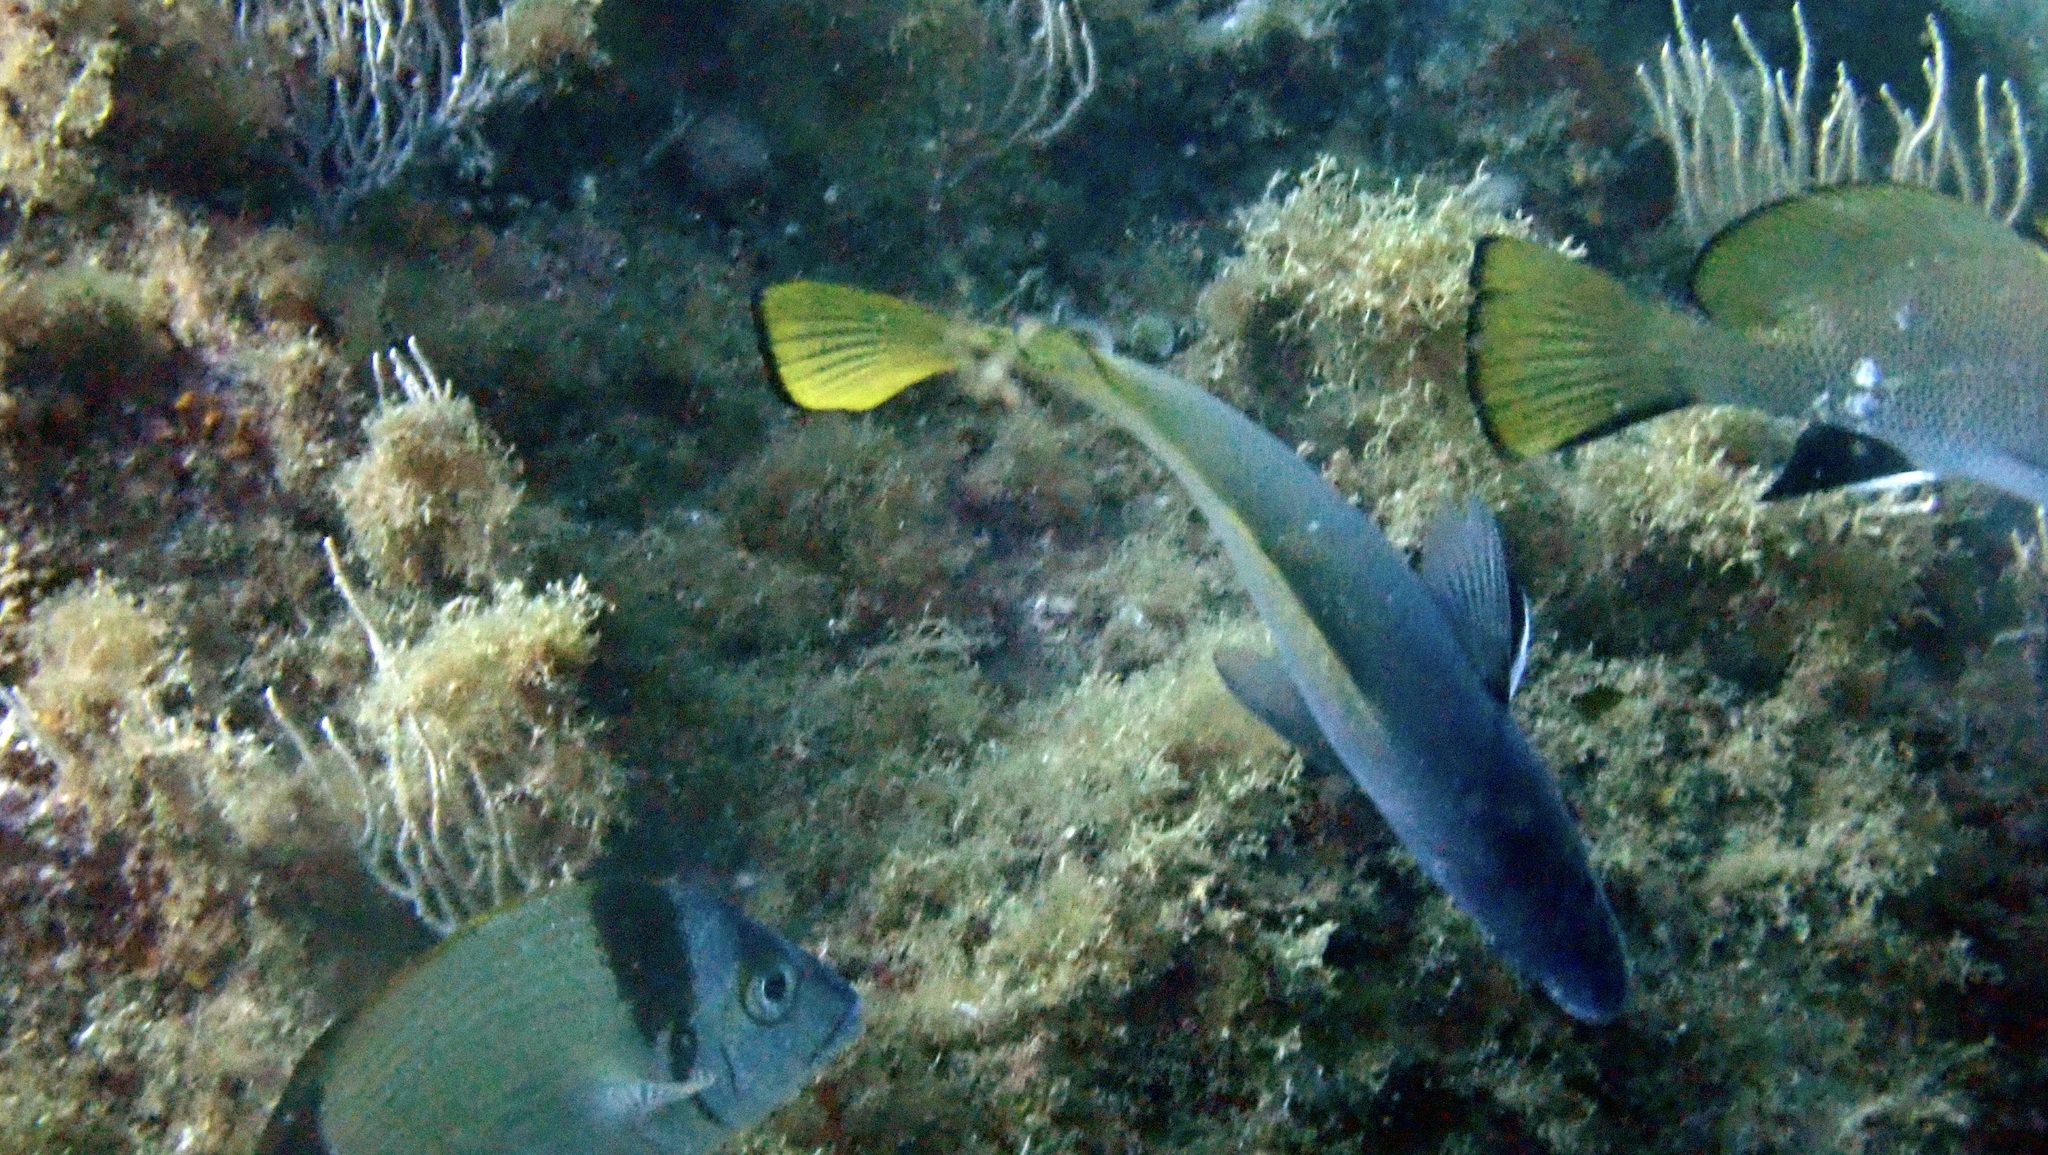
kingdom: Animalia
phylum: Chordata
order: Perciformes
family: Sciaenidae
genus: Sciaena
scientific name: Sciaena umbra
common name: Brown meagre
